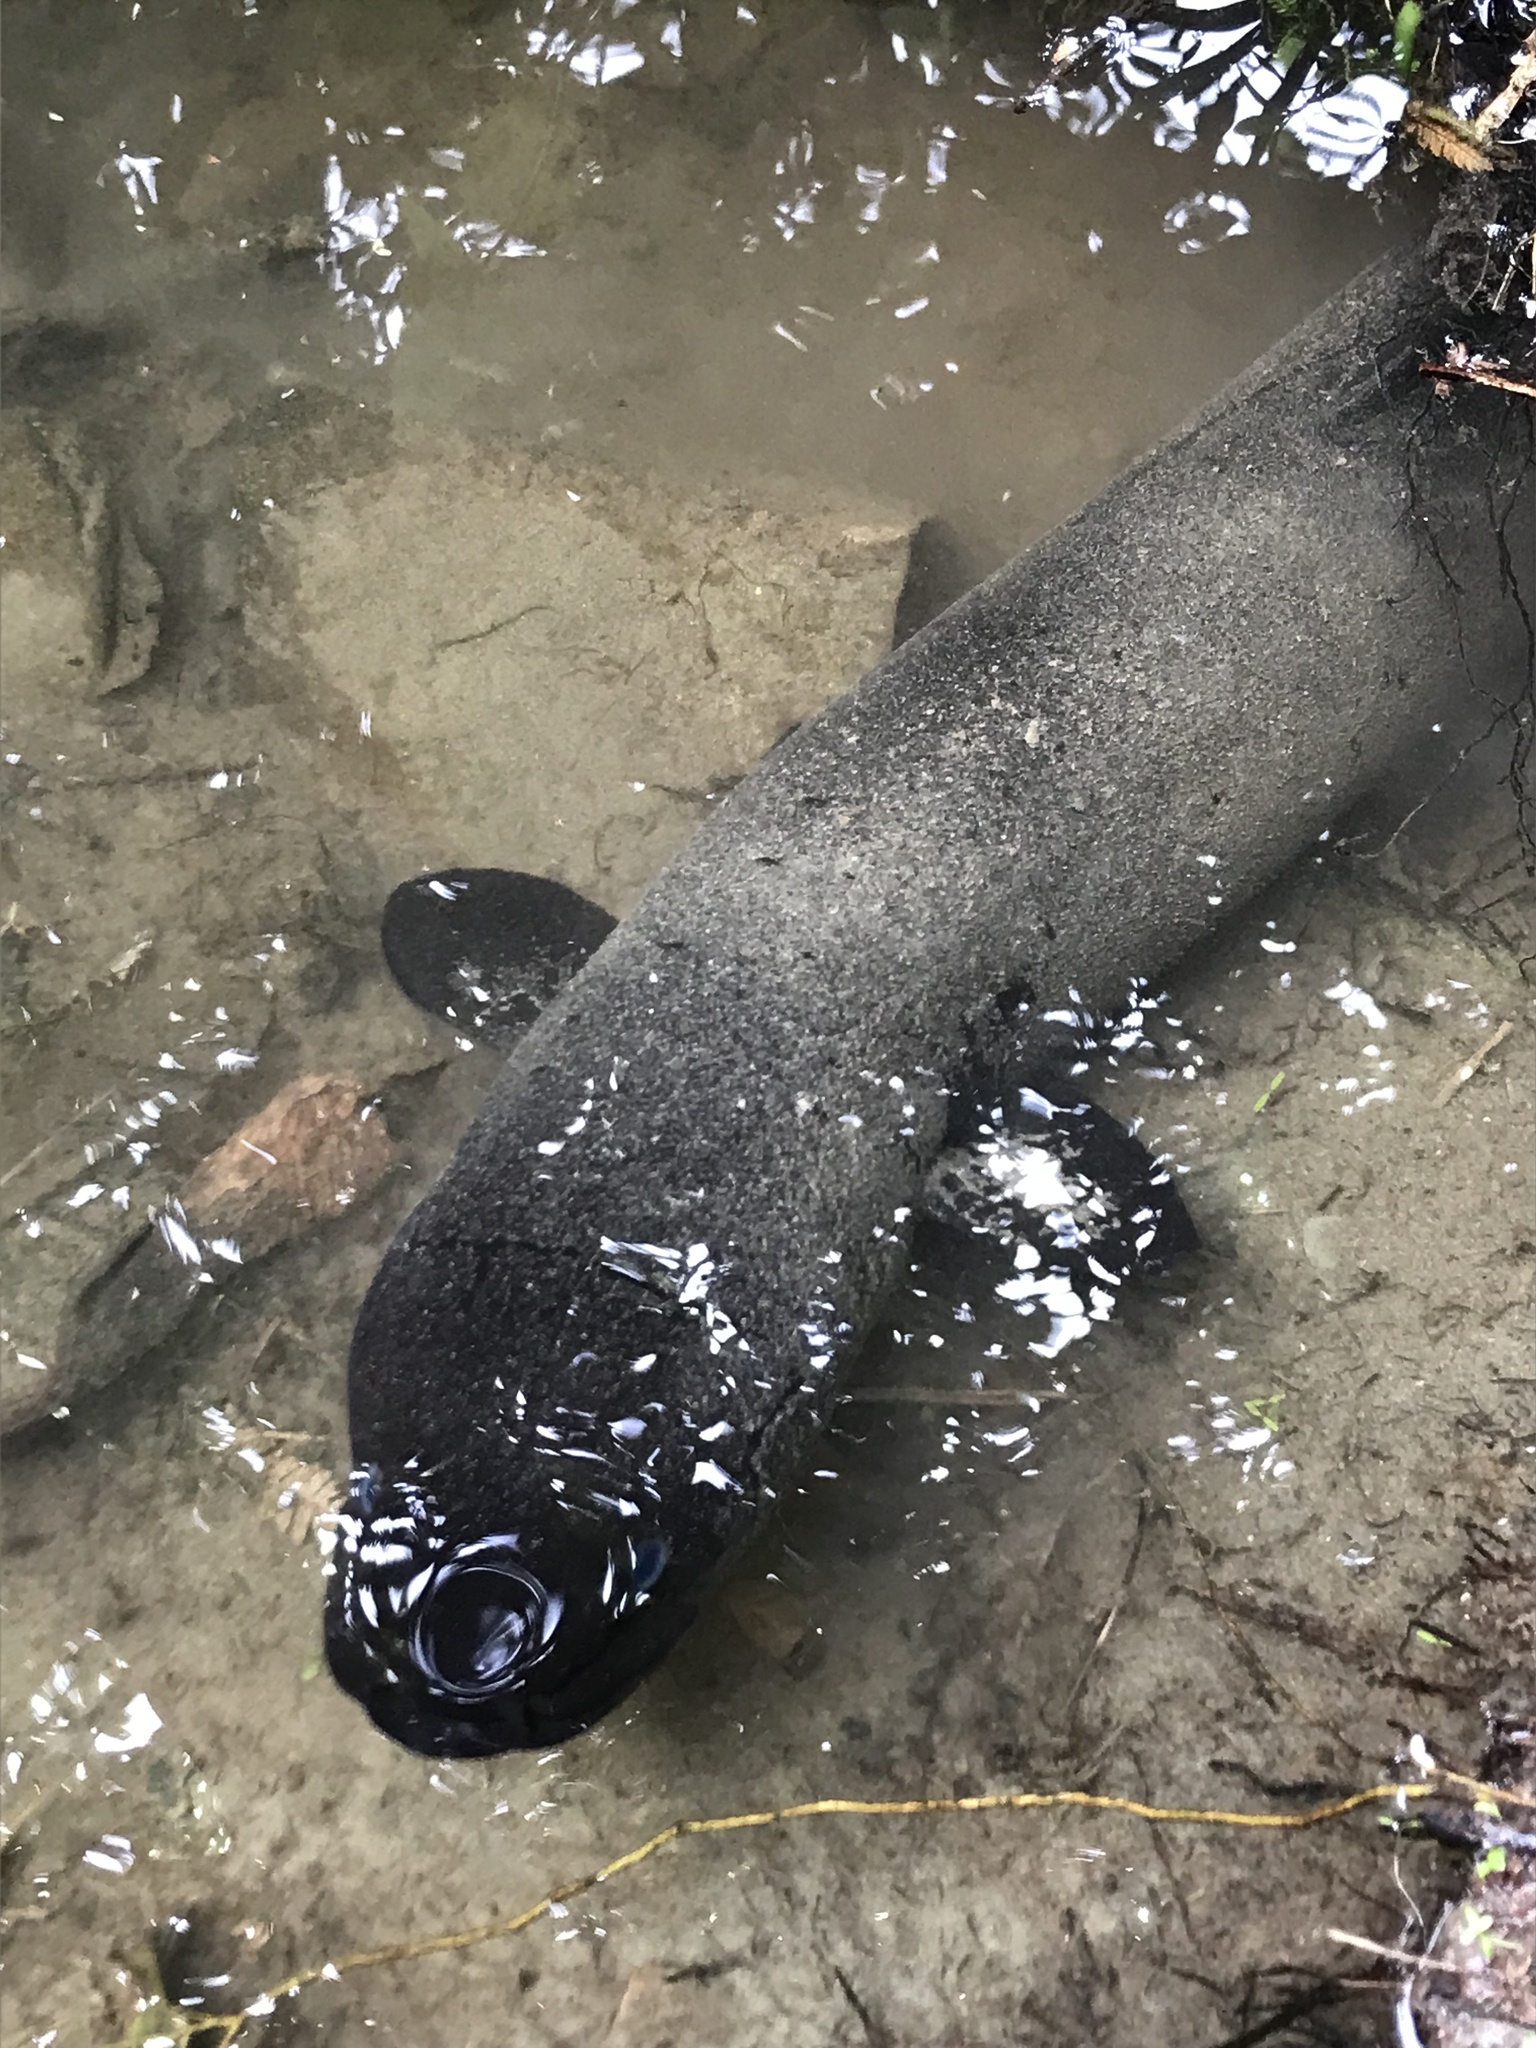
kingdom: Animalia
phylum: Chordata
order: Anguilliformes
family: Anguillidae
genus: Anguilla
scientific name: Anguilla dieffenbachii
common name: New zealand longfin eel
